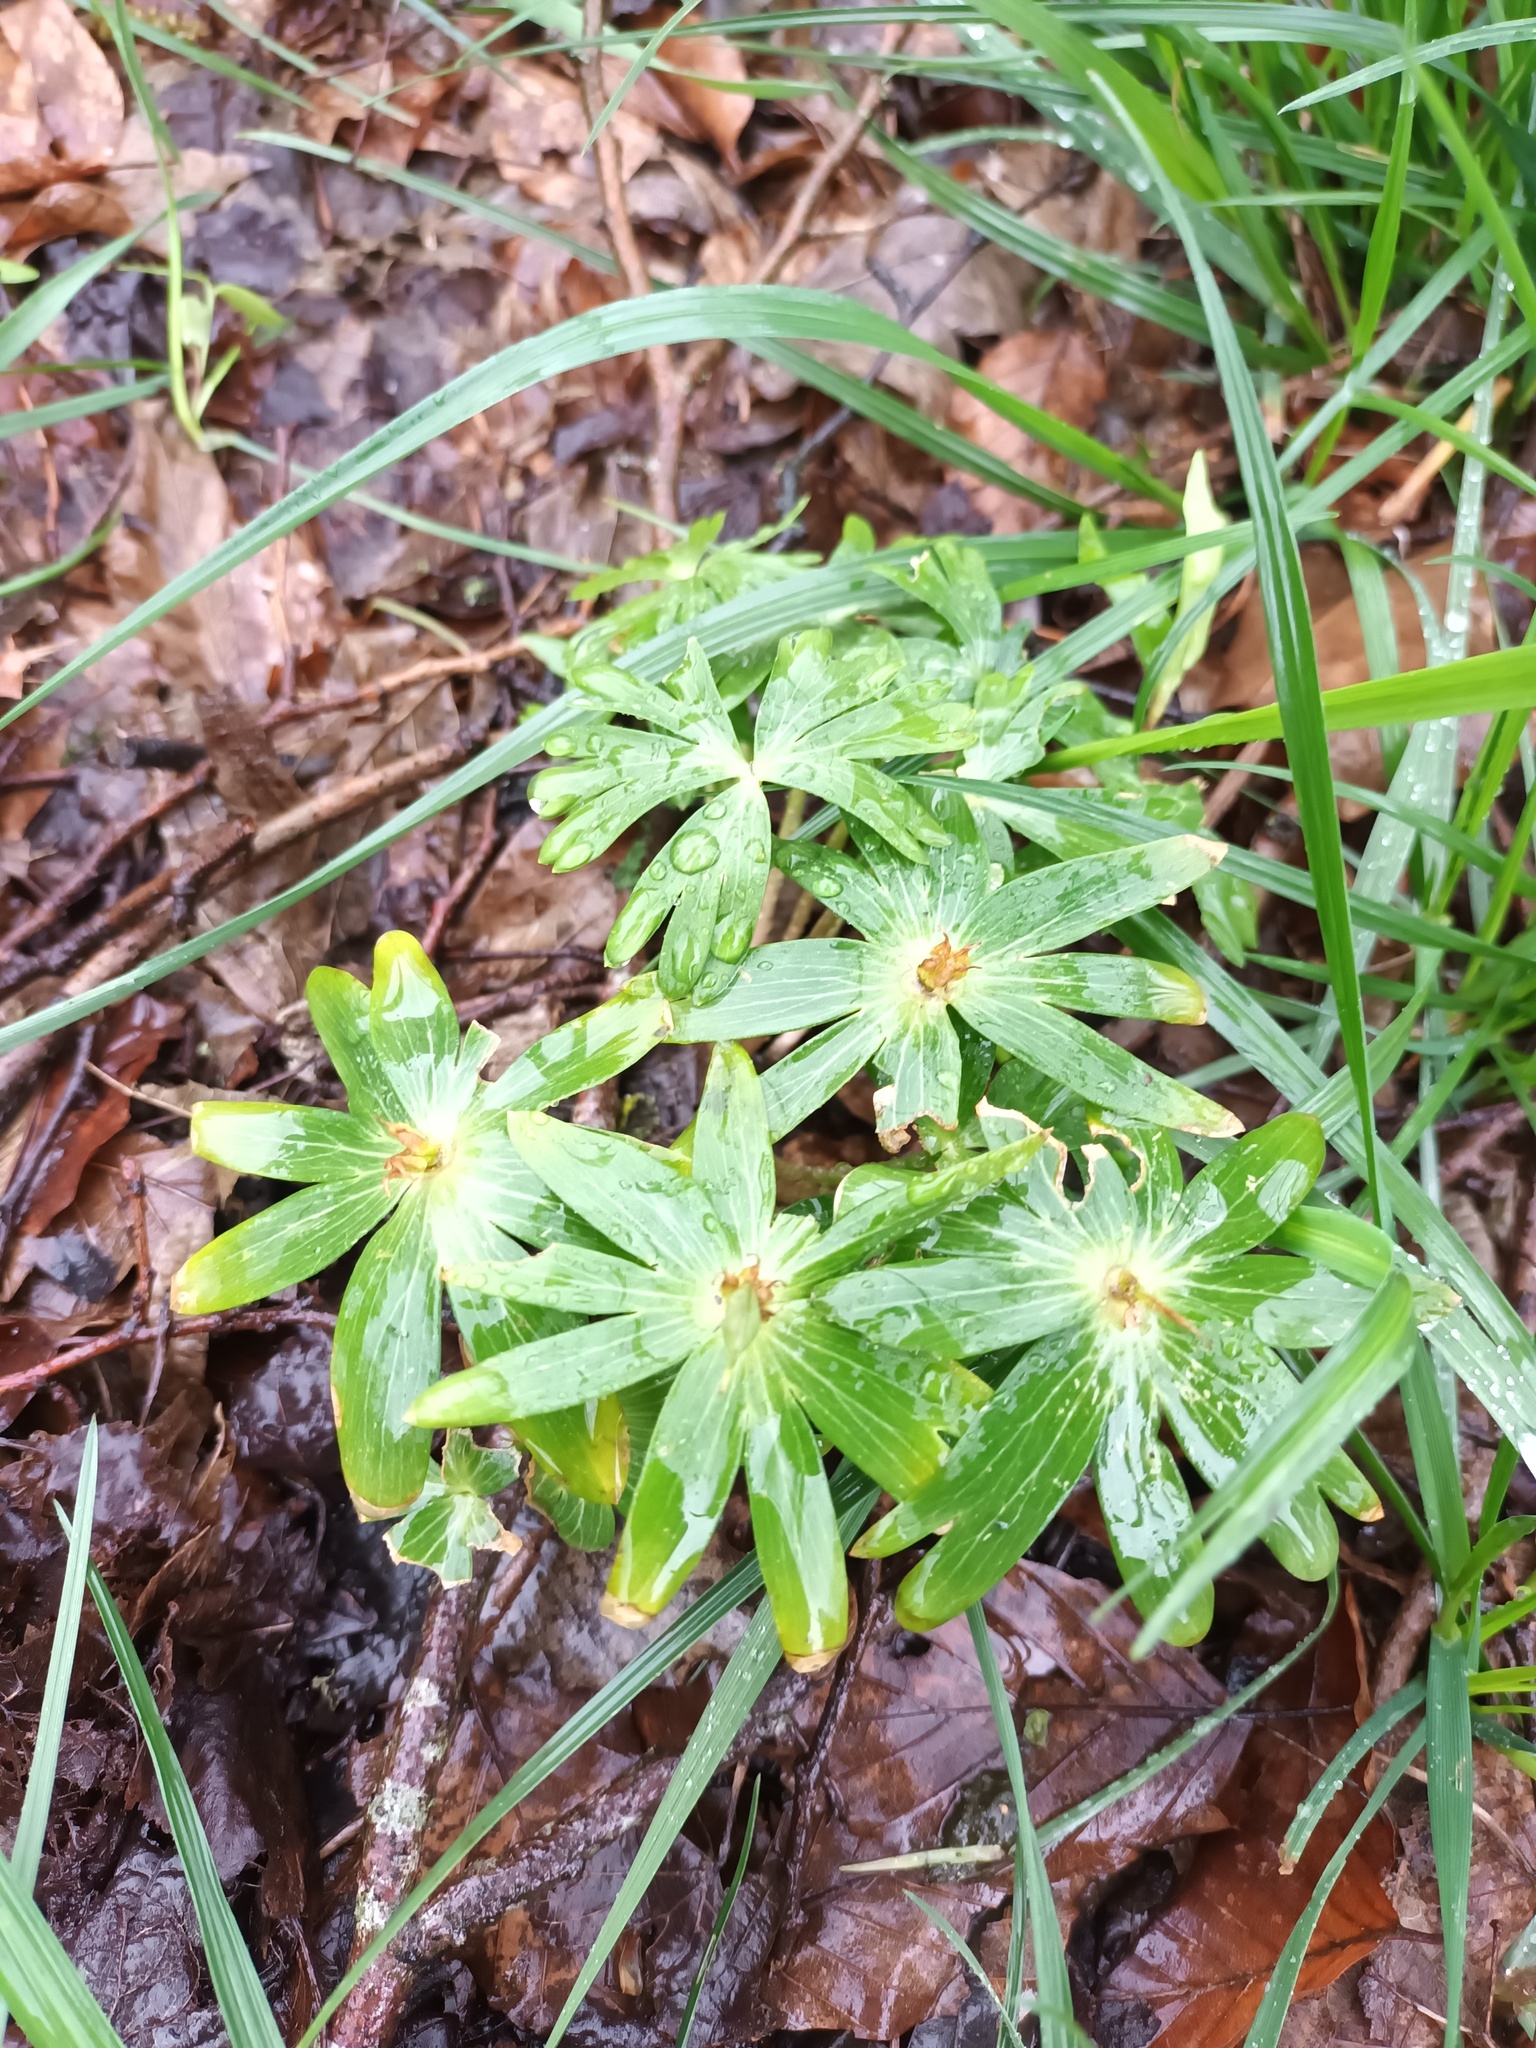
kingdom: Plantae
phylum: Tracheophyta
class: Magnoliopsida
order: Ranunculales
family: Ranunculaceae
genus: Eranthis
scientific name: Eranthis hyemalis
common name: Winter aconite
